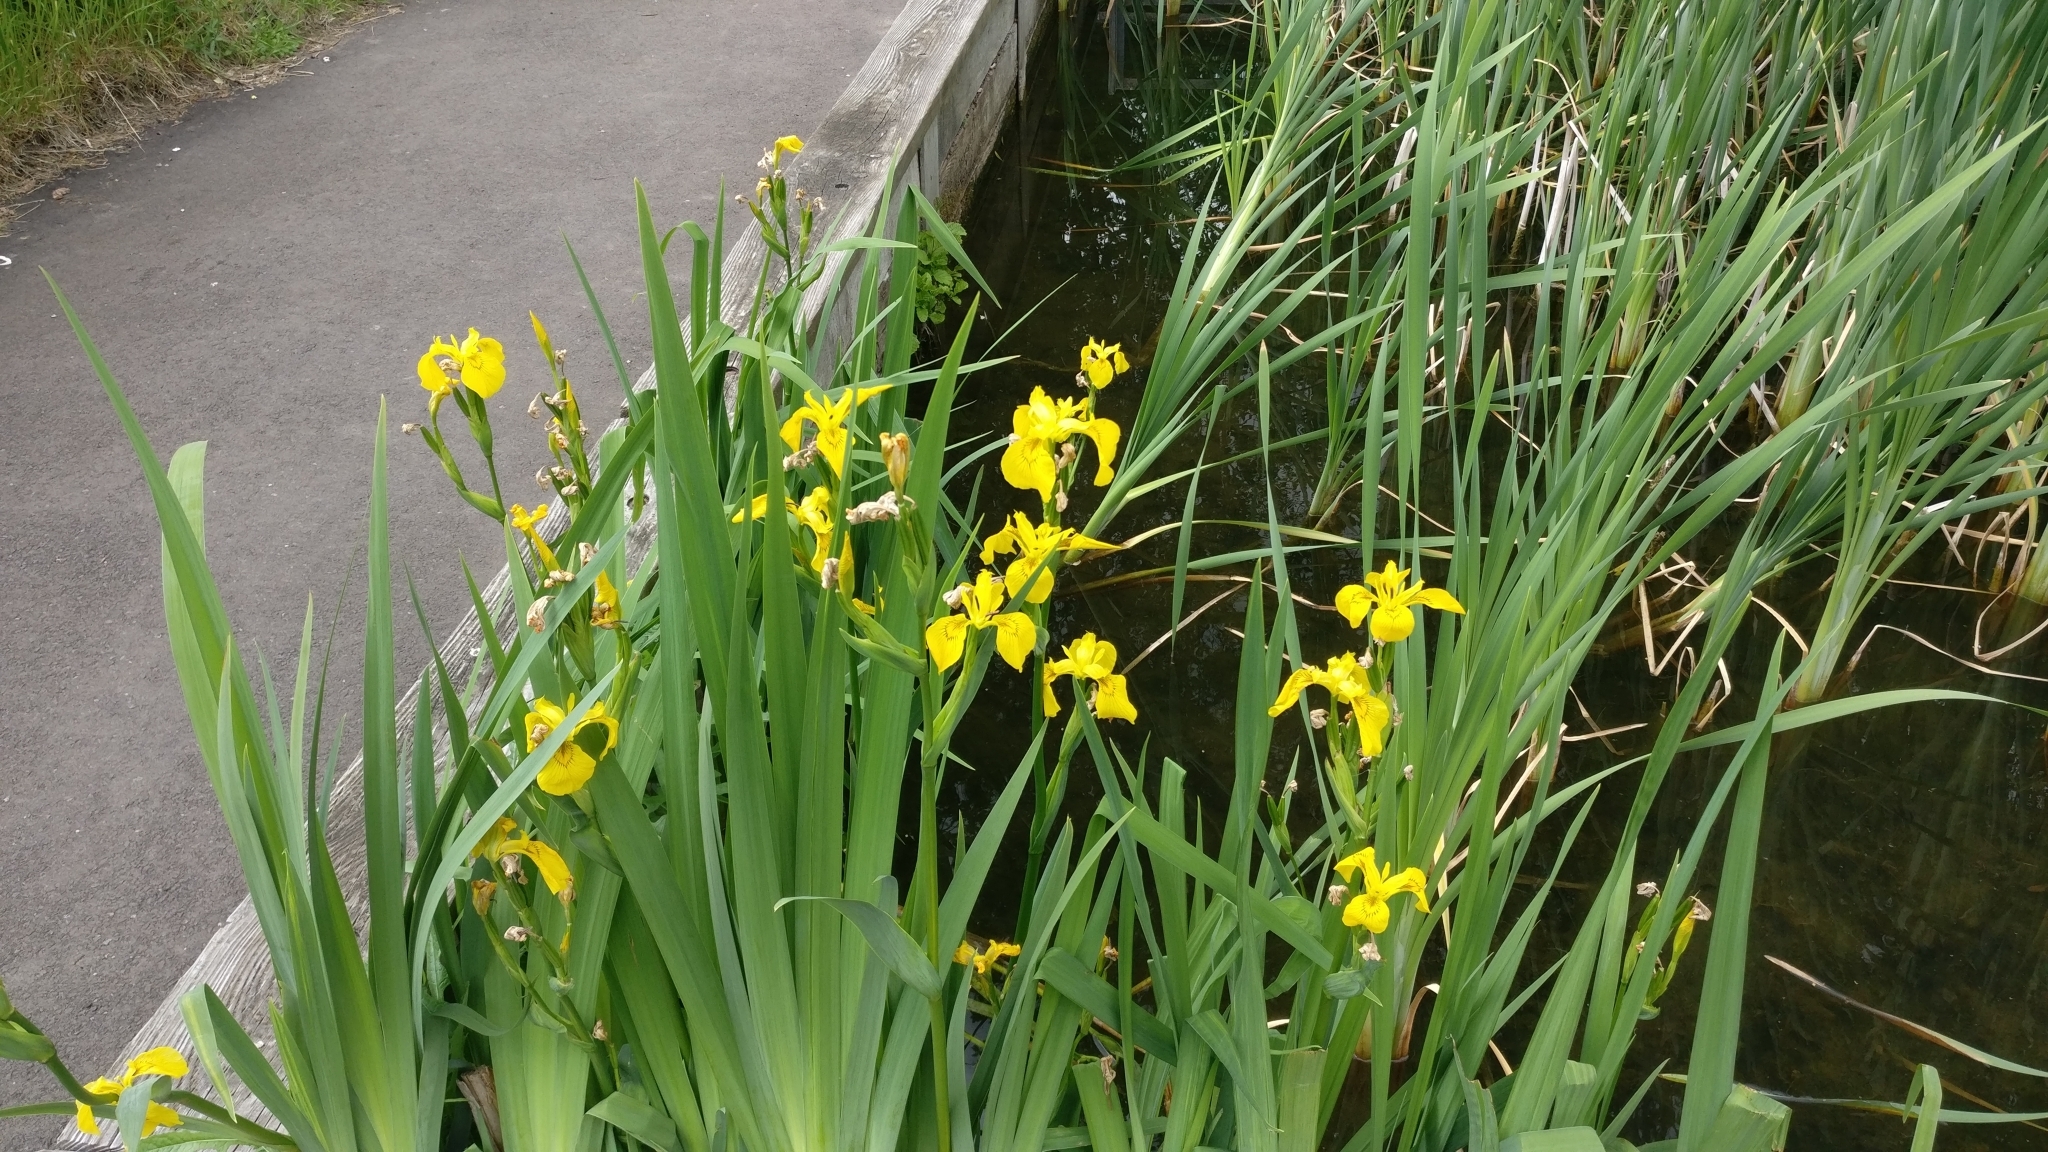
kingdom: Plantae
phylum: Tracheophyta
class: Liliopsida
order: Asparagales
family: Iridaceae
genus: Iris
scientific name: Iris pseudacorus
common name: Yellow flag
